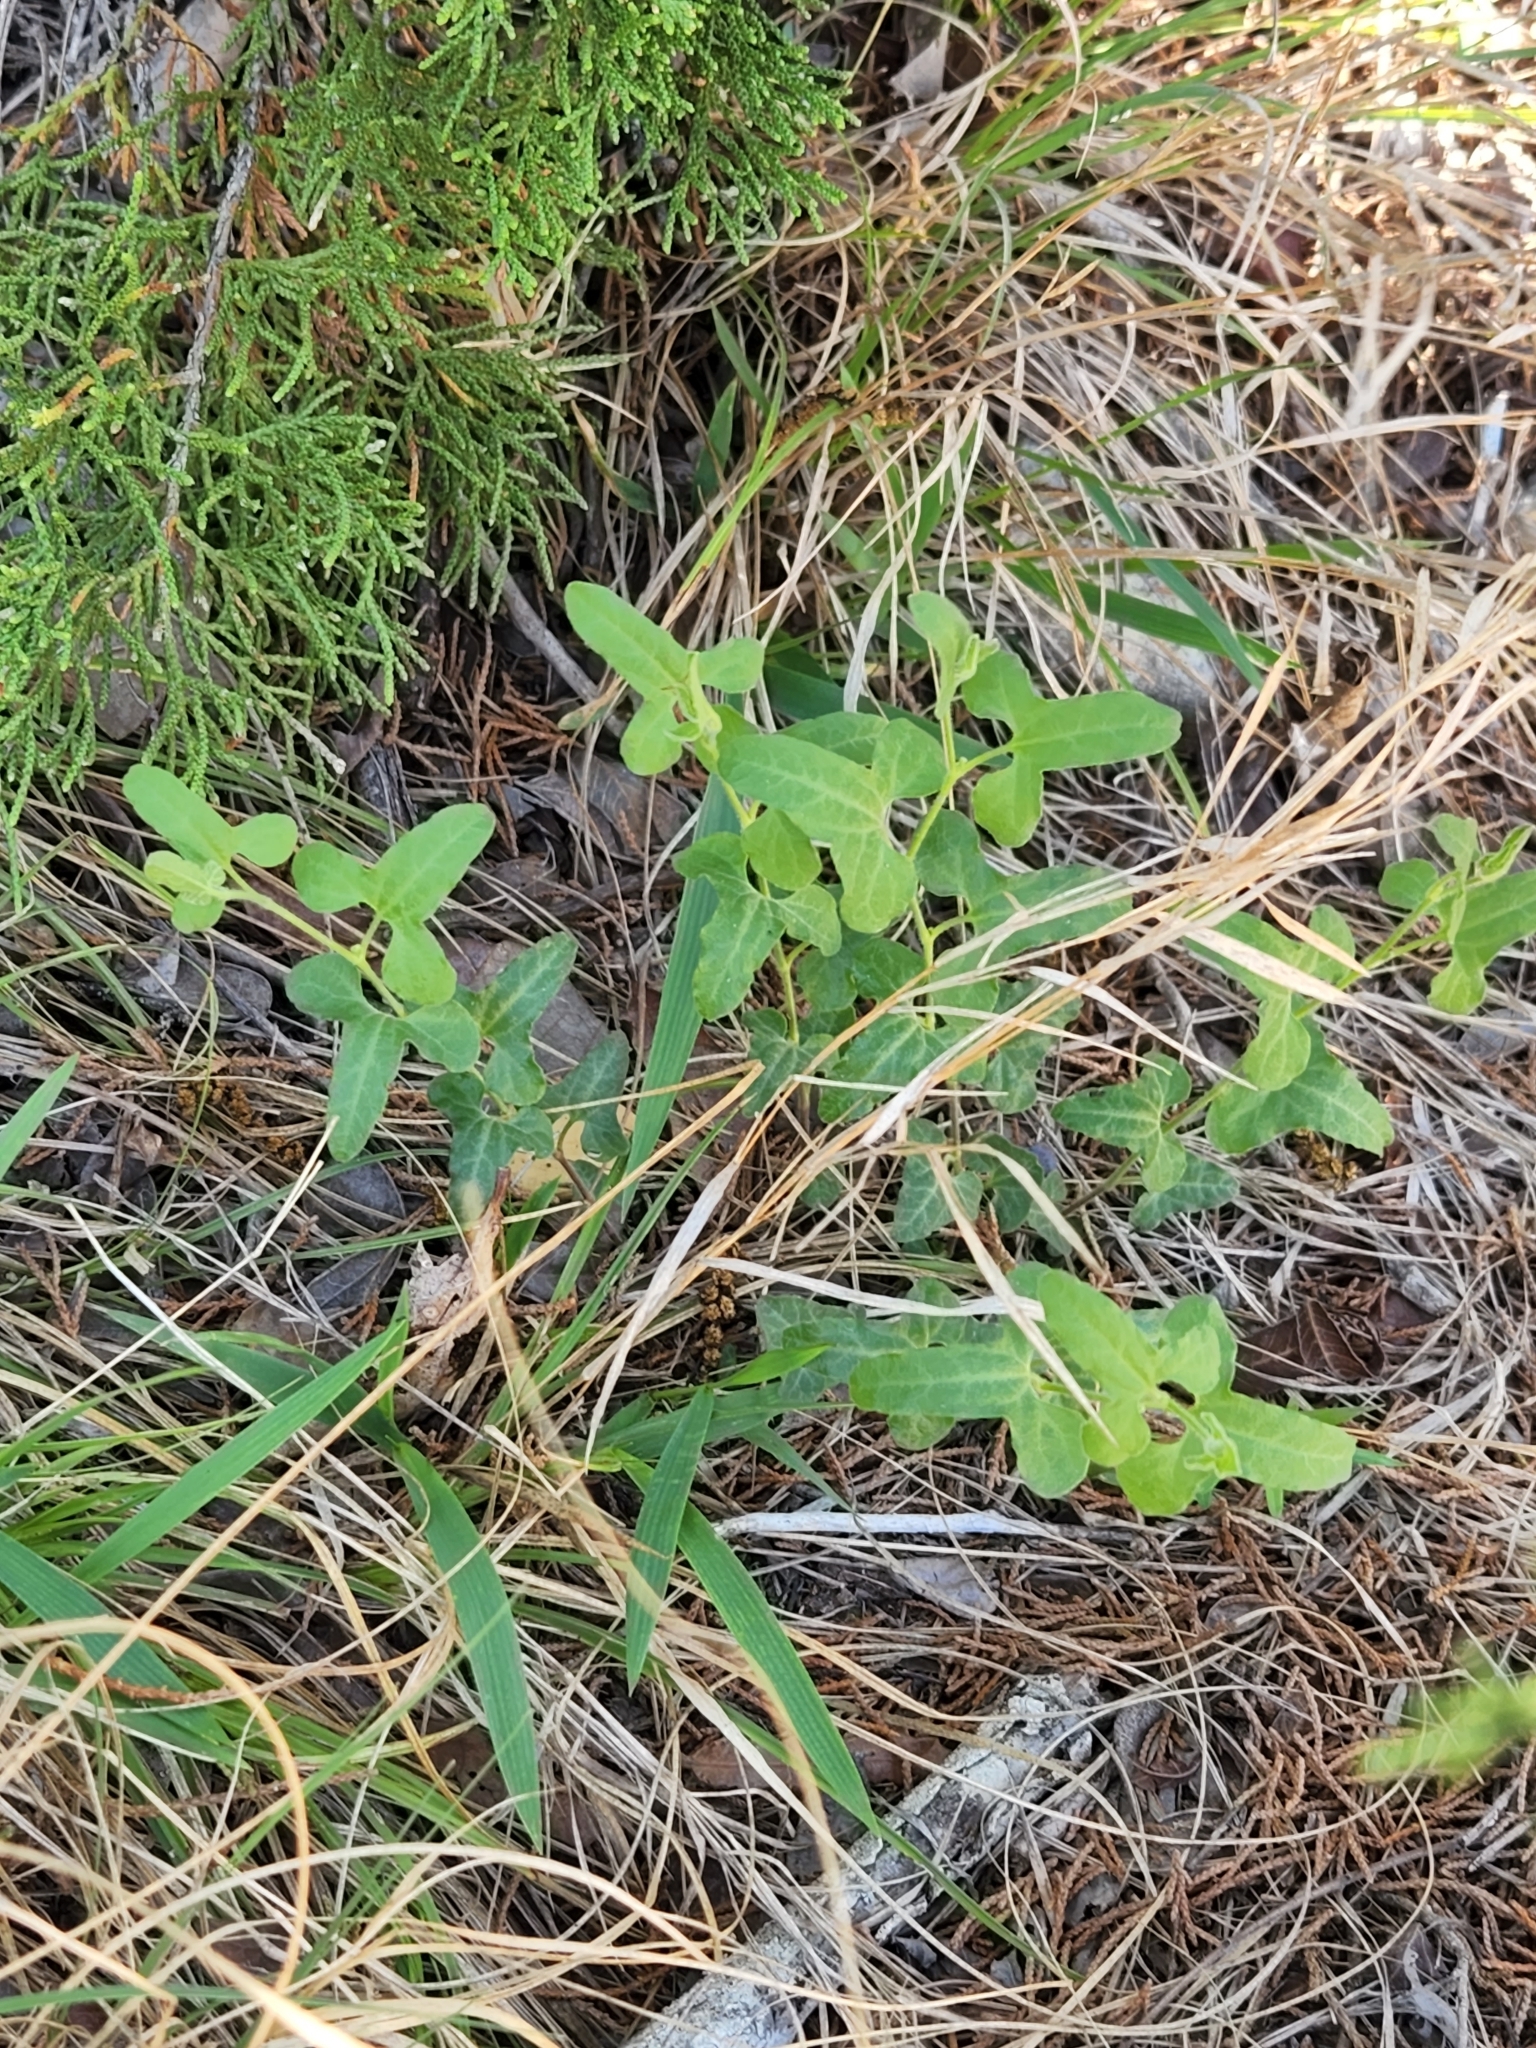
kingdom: Plantae
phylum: Tracheophyta
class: Magnoliopsida
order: Piperales
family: Aristolochiaceae
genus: Aristolochia
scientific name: Aristolochia coryi
